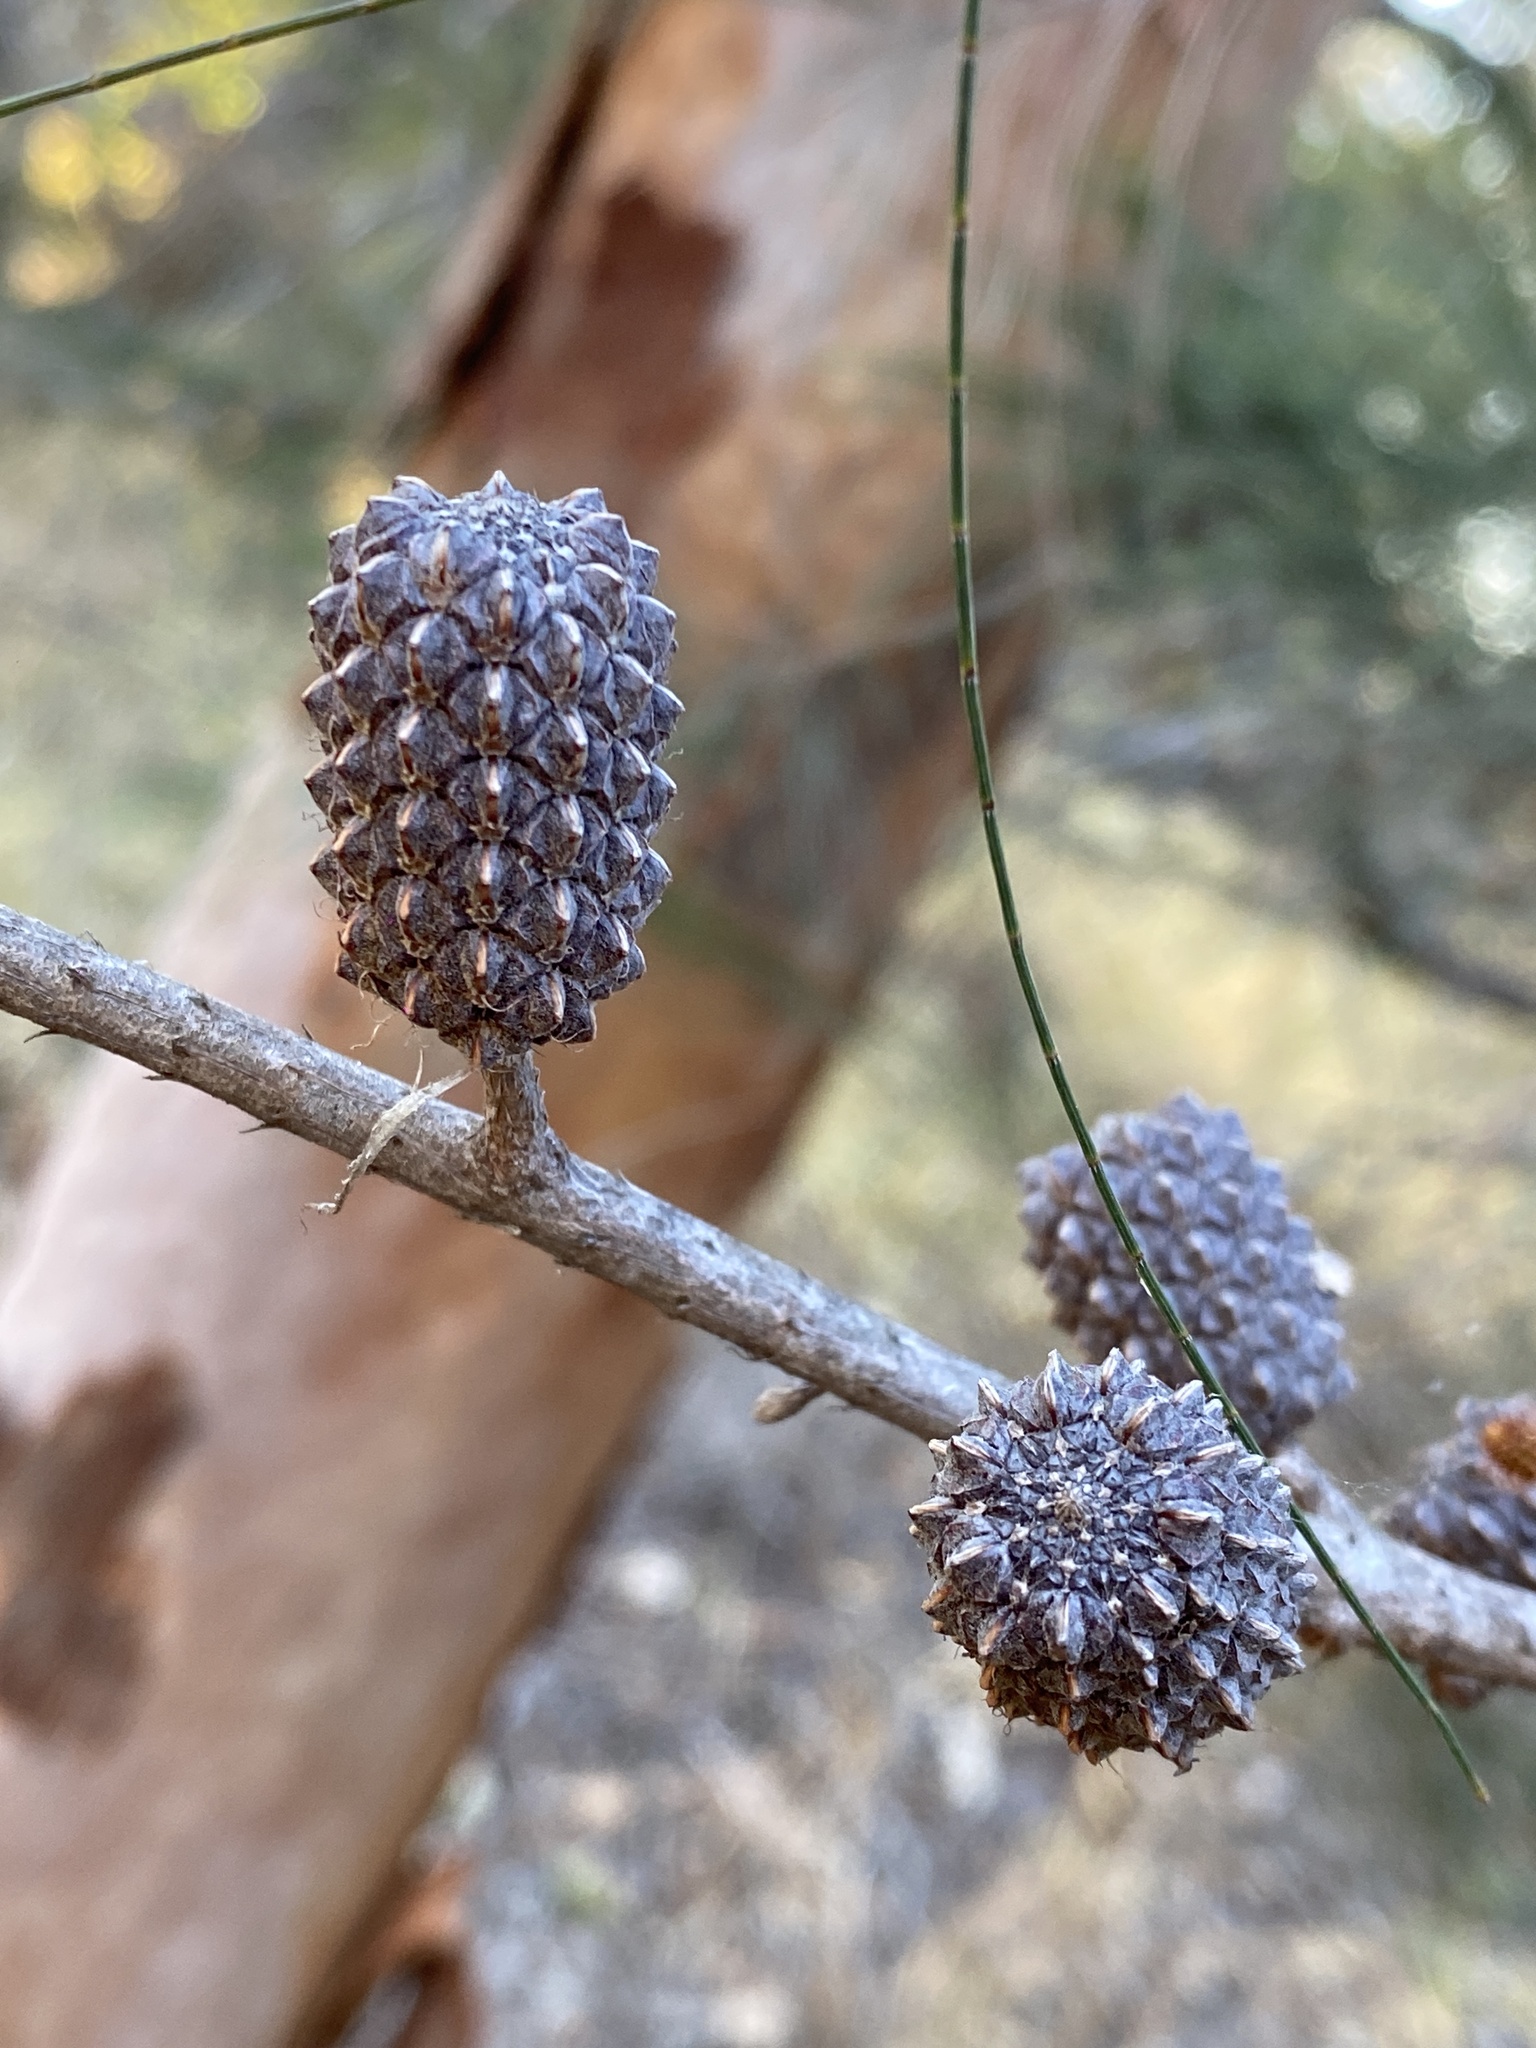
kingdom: Plantae
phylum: Tracheophyta
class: Magnoliopsida
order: Fagales
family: Casuarinaceae
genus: Allocasuarina
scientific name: Allocasuarina littoralis
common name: Black she-oak
